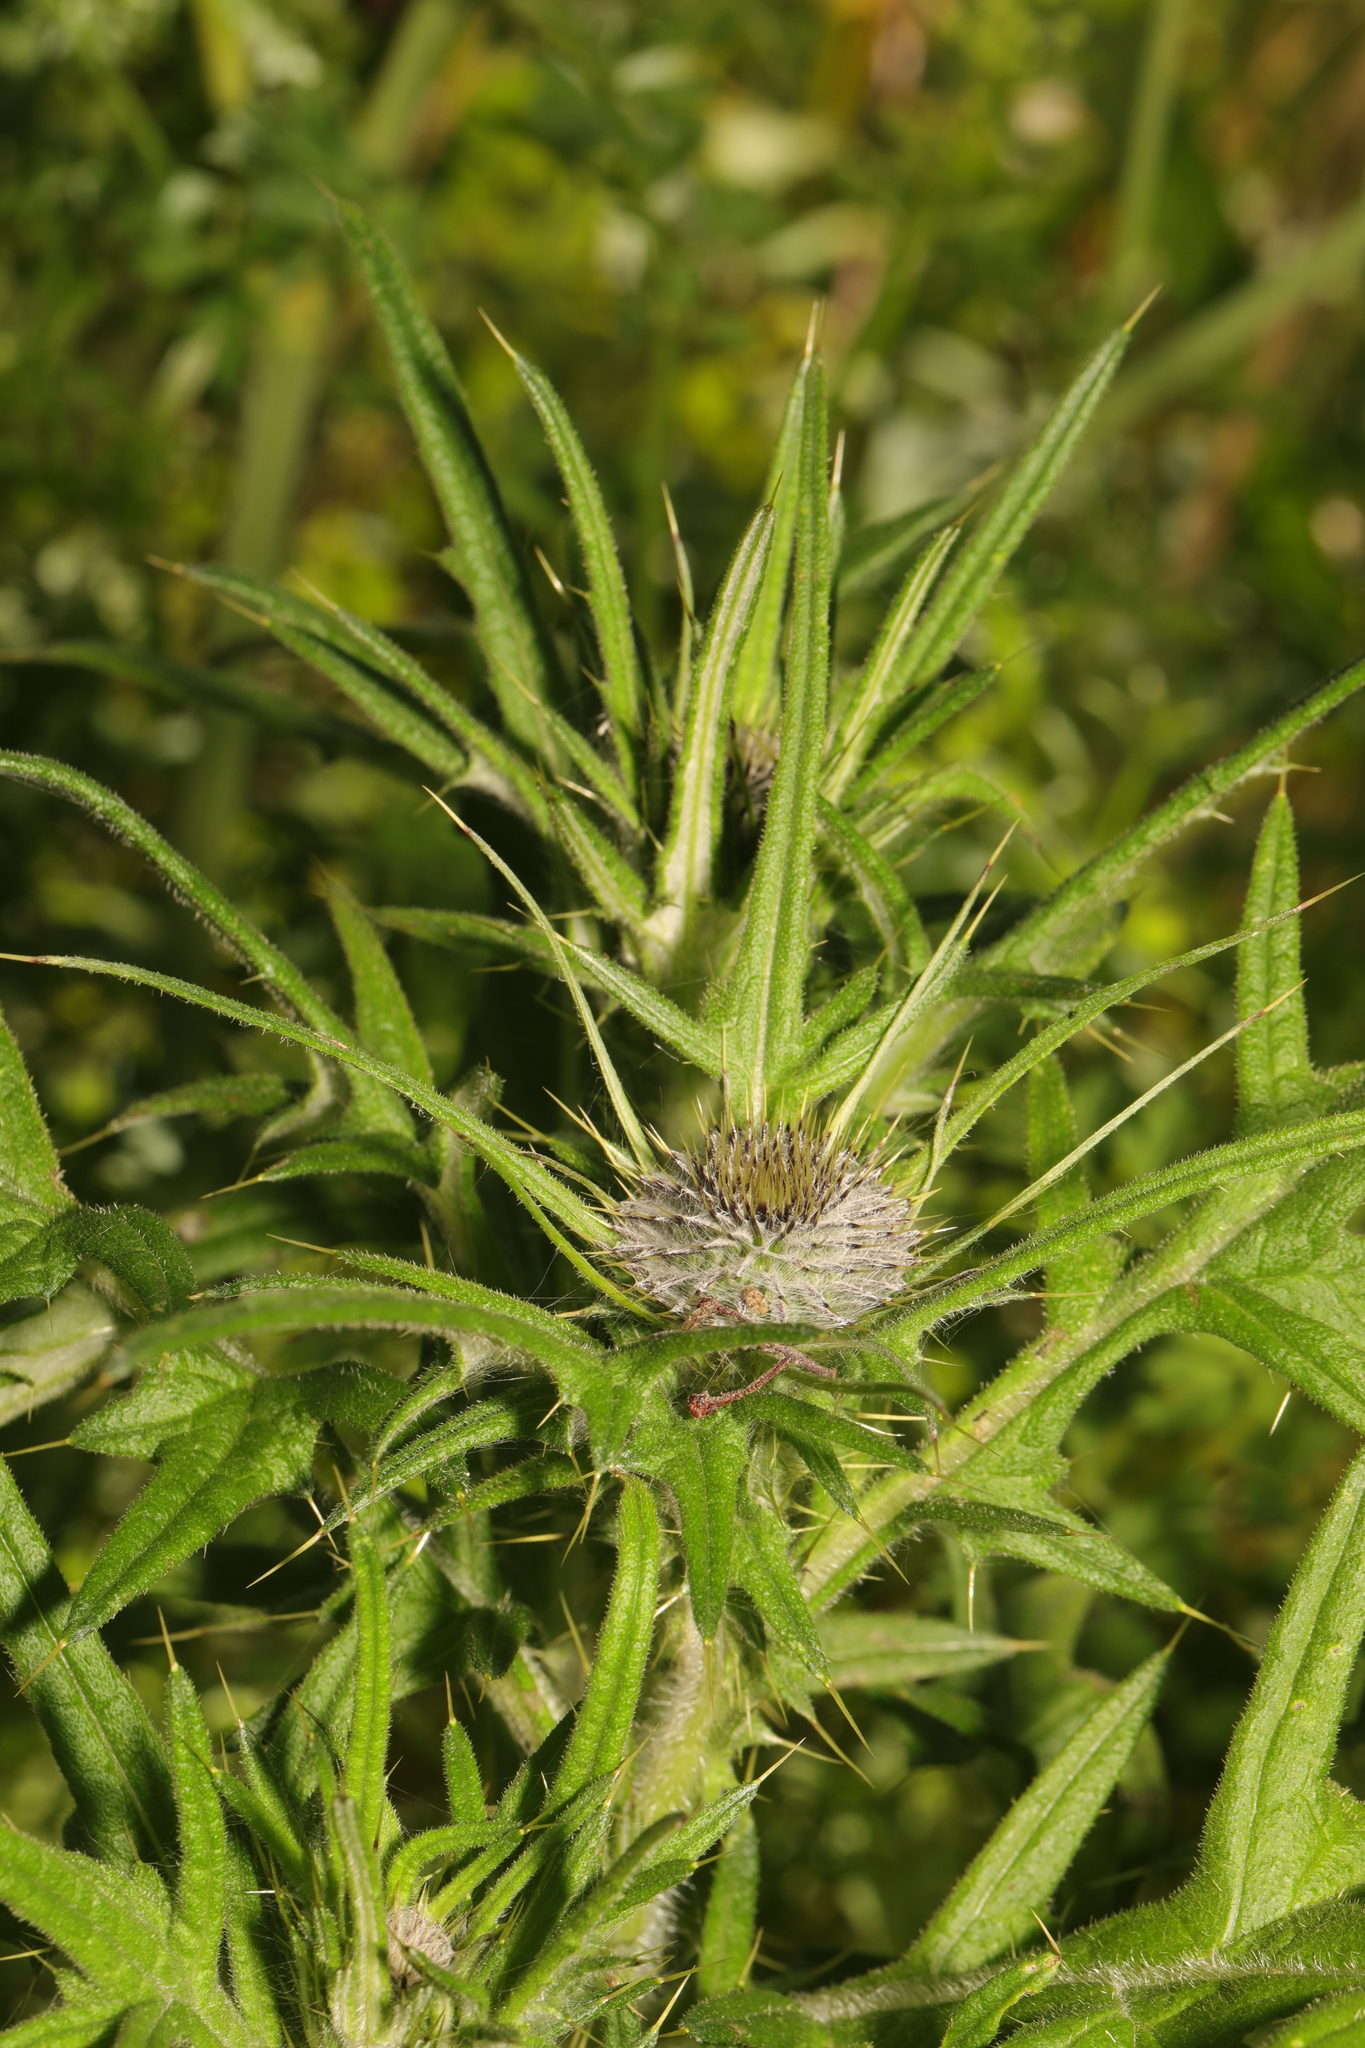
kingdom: Plantae
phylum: Tracheophyta
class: Magnoliopsida
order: Asterales
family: Asteraceae
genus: Cirsium
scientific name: Cirsium vulgare
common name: Bull thistle
